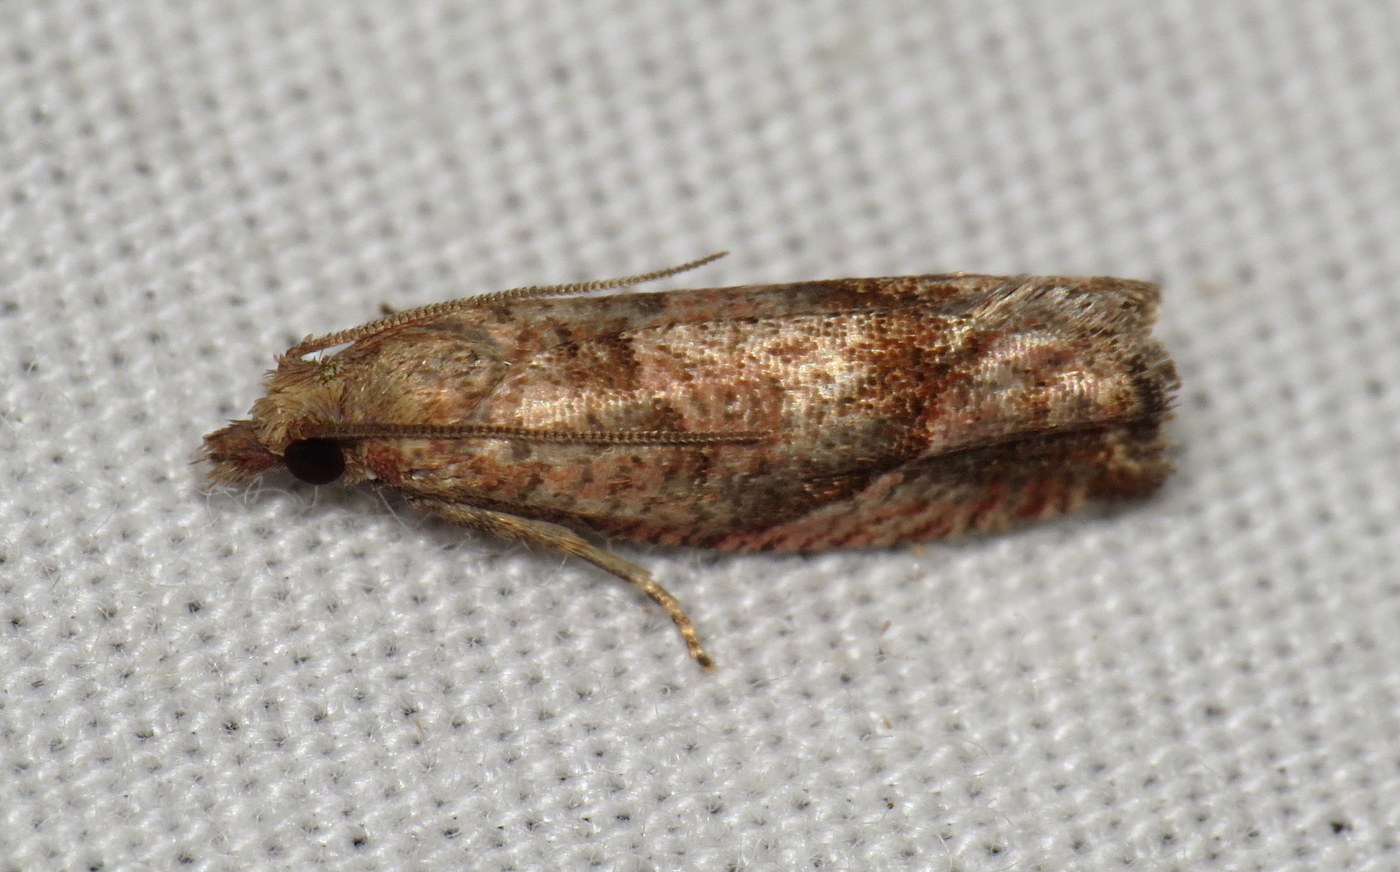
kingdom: Animalia
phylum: Arthropoda
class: Insecta
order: Lepidoptera
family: Tortricidae
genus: Pelochrista
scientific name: Pelochrista derelicta
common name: Derelict pelochrista moth
